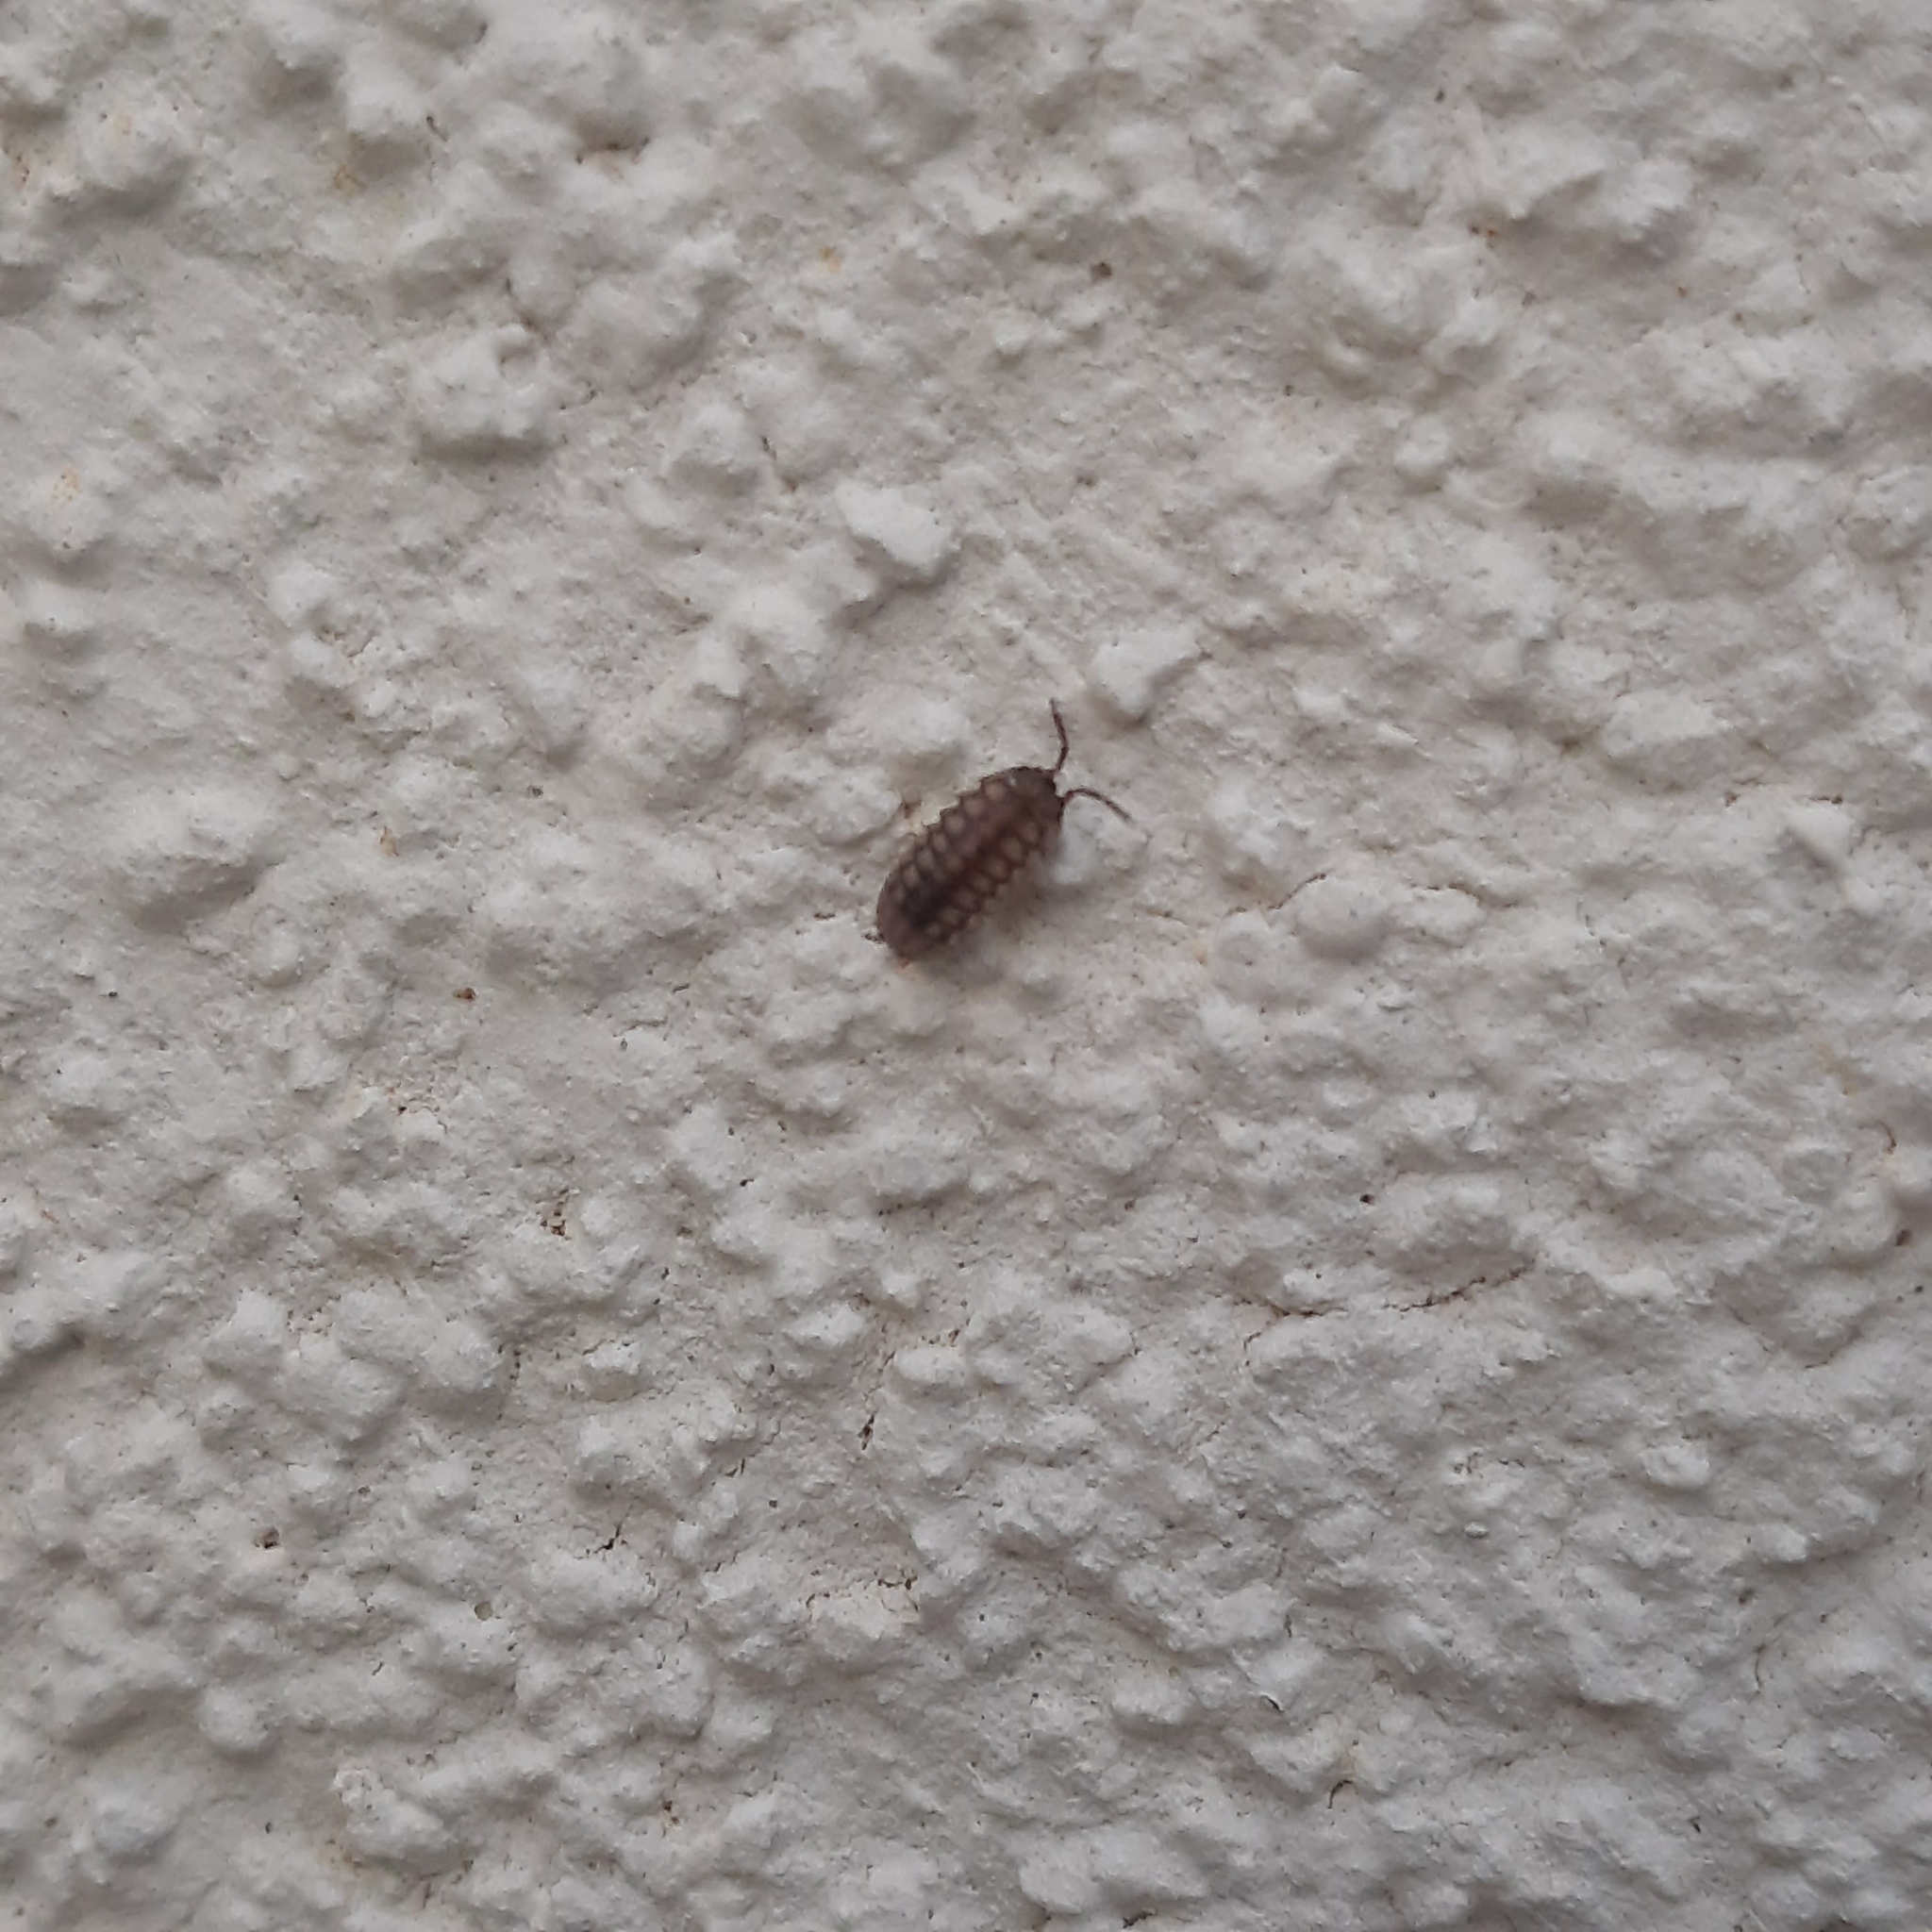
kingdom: Animalia
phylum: Arthropoda
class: Malacostraca
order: Isopoda
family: Armadillidiidae
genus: Armadillidium
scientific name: Armadillidium nasatum
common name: Isopod
